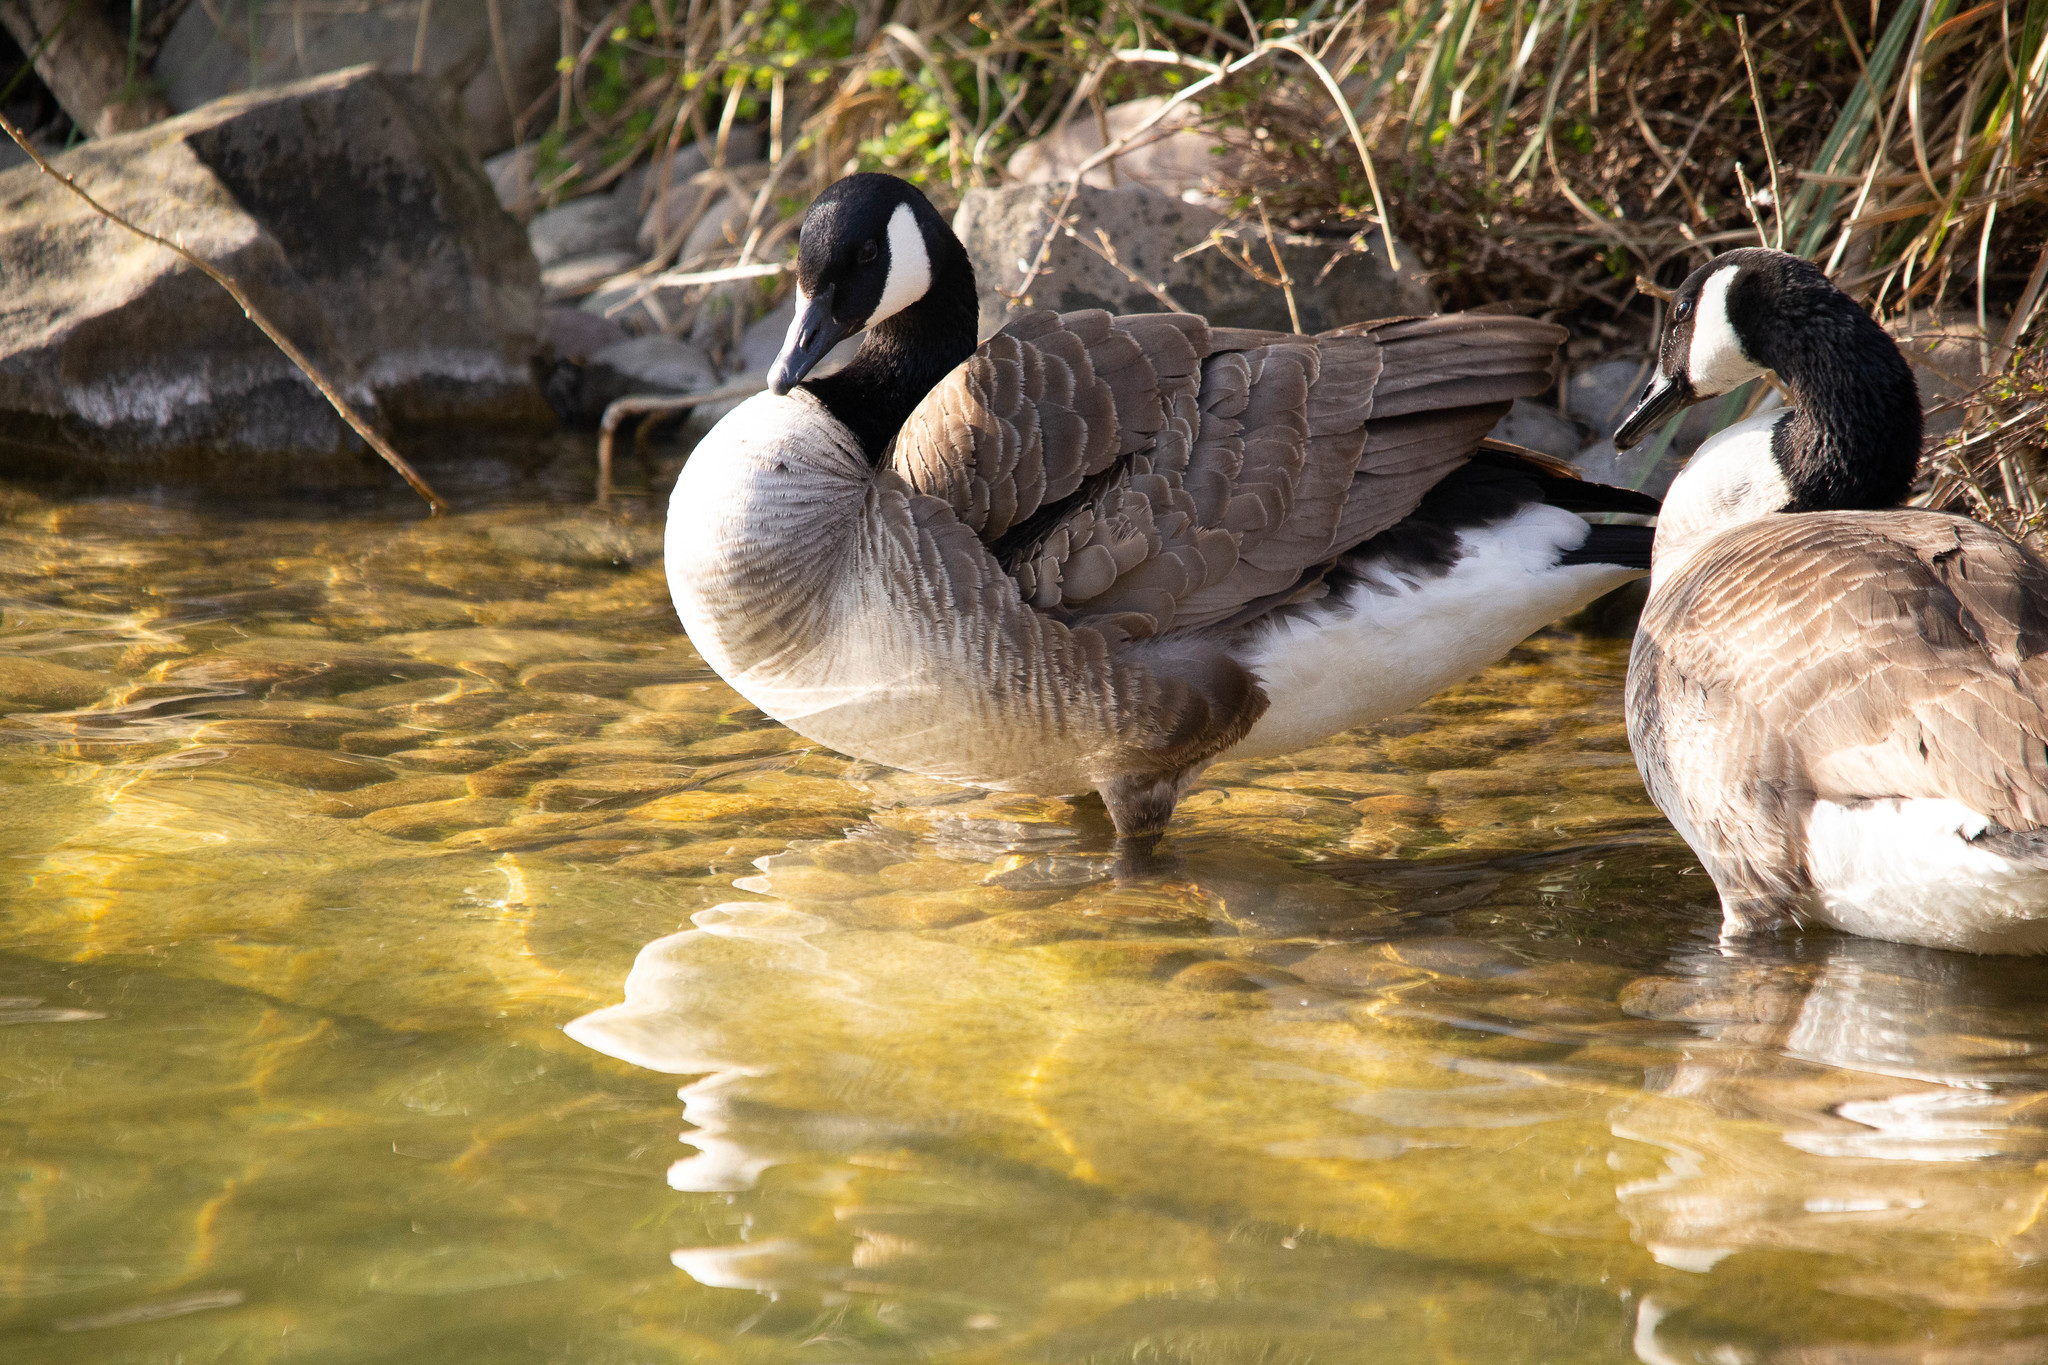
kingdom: Animalia
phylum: Chordata
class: Aves
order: Anseriformes
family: Anatidae
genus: Branta
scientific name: Branta canadensis
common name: Canada goose
